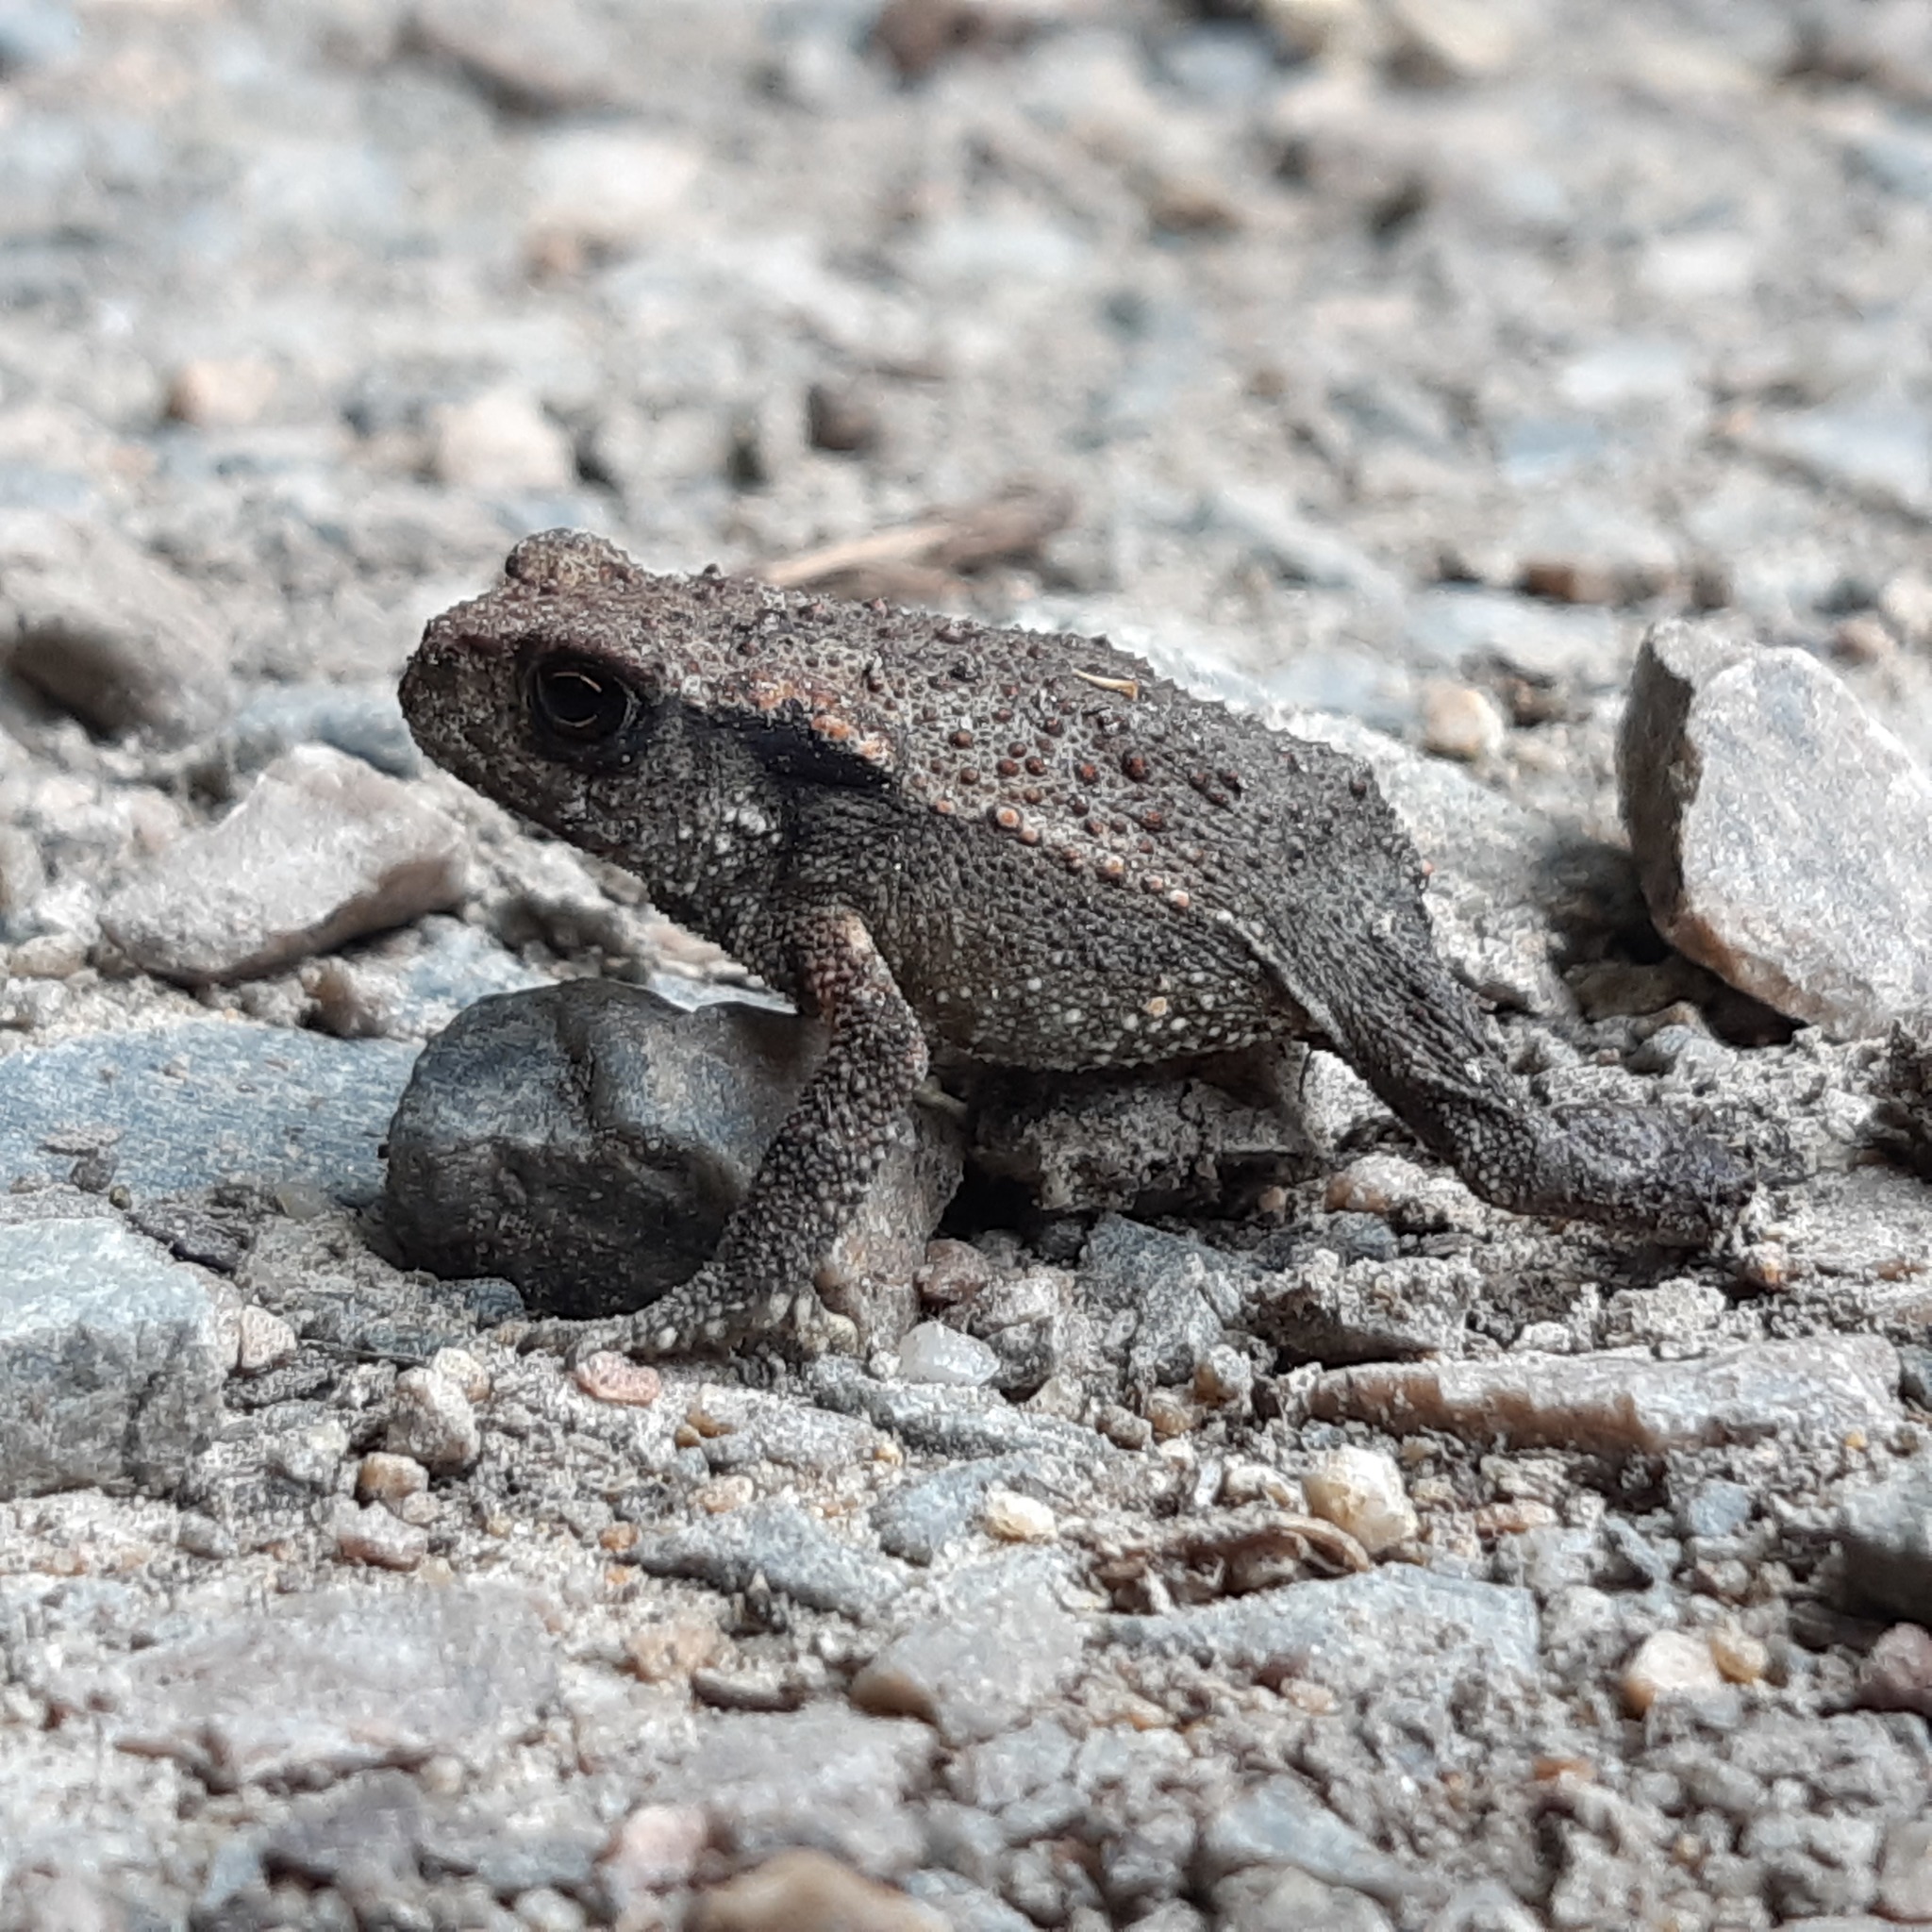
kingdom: Animalia
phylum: Chordata
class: Amphibia
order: Anura
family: Bufonidae
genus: Bufo
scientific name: Bufo spinosus
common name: Western common toad
